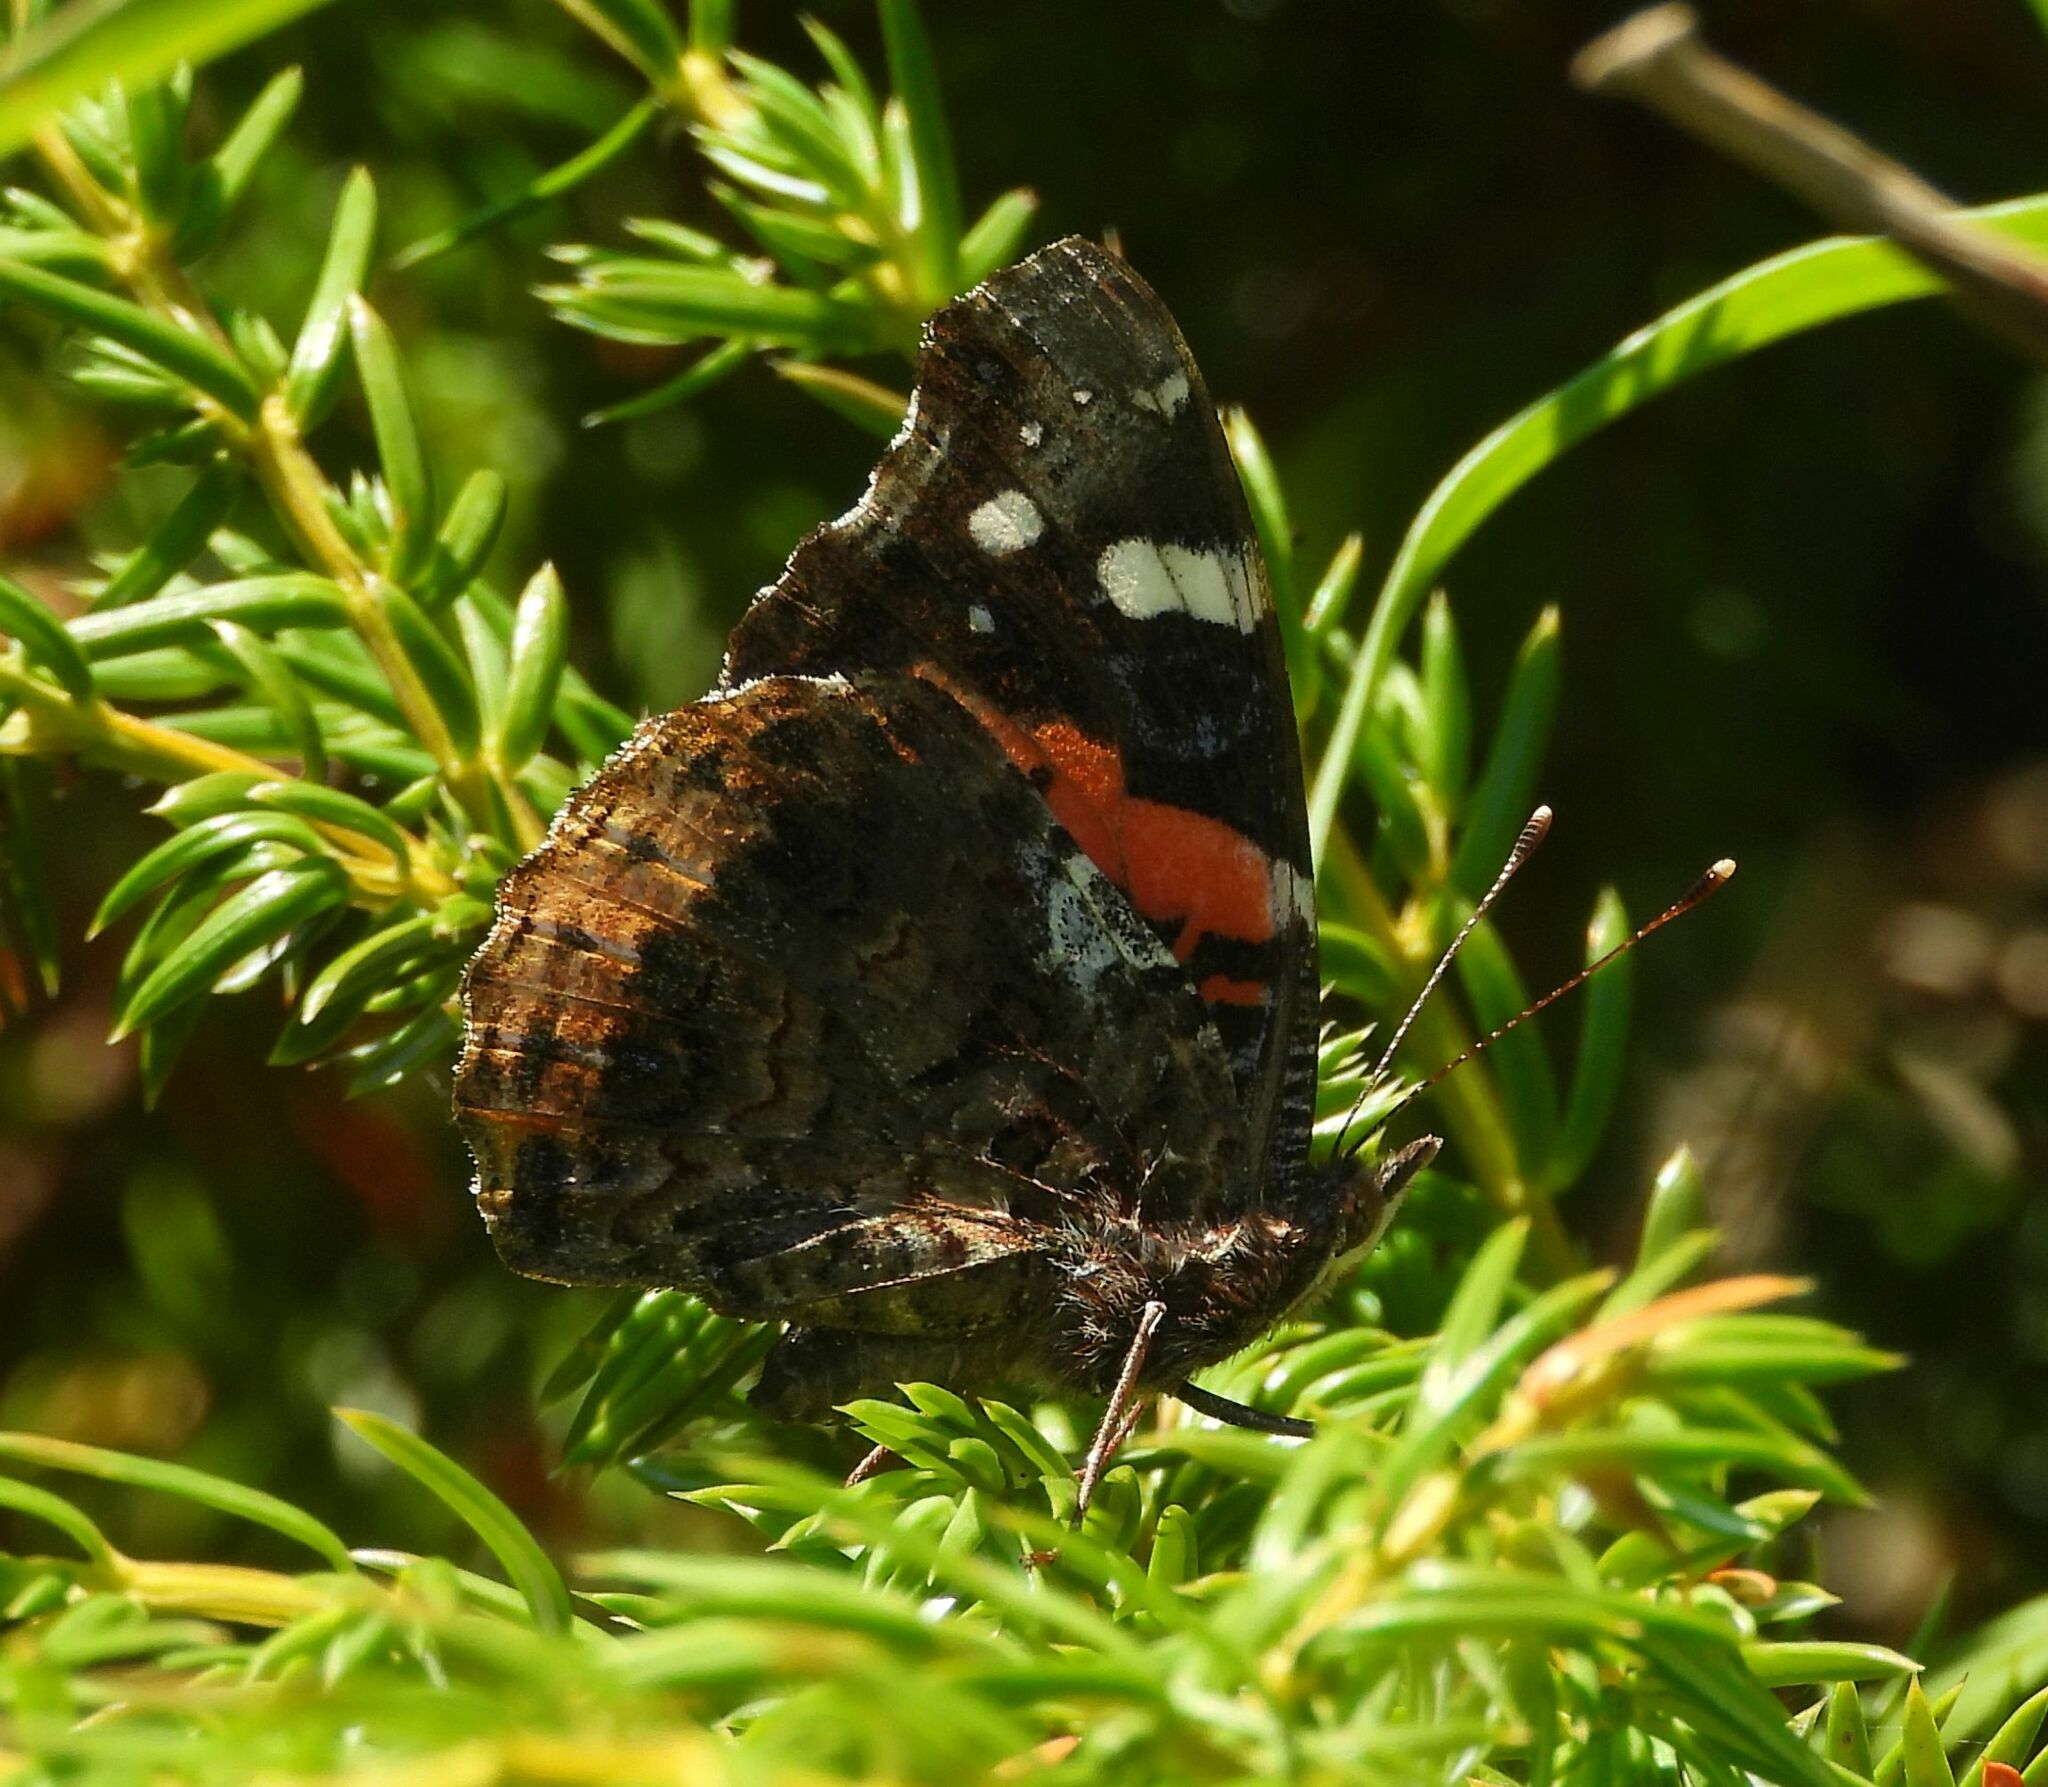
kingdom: Animalia
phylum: Arthropoda
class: Insecta
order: Lepidoptera
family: Nymphalidae
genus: Vanessa
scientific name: Vanessa atalanta
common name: Red admiral
